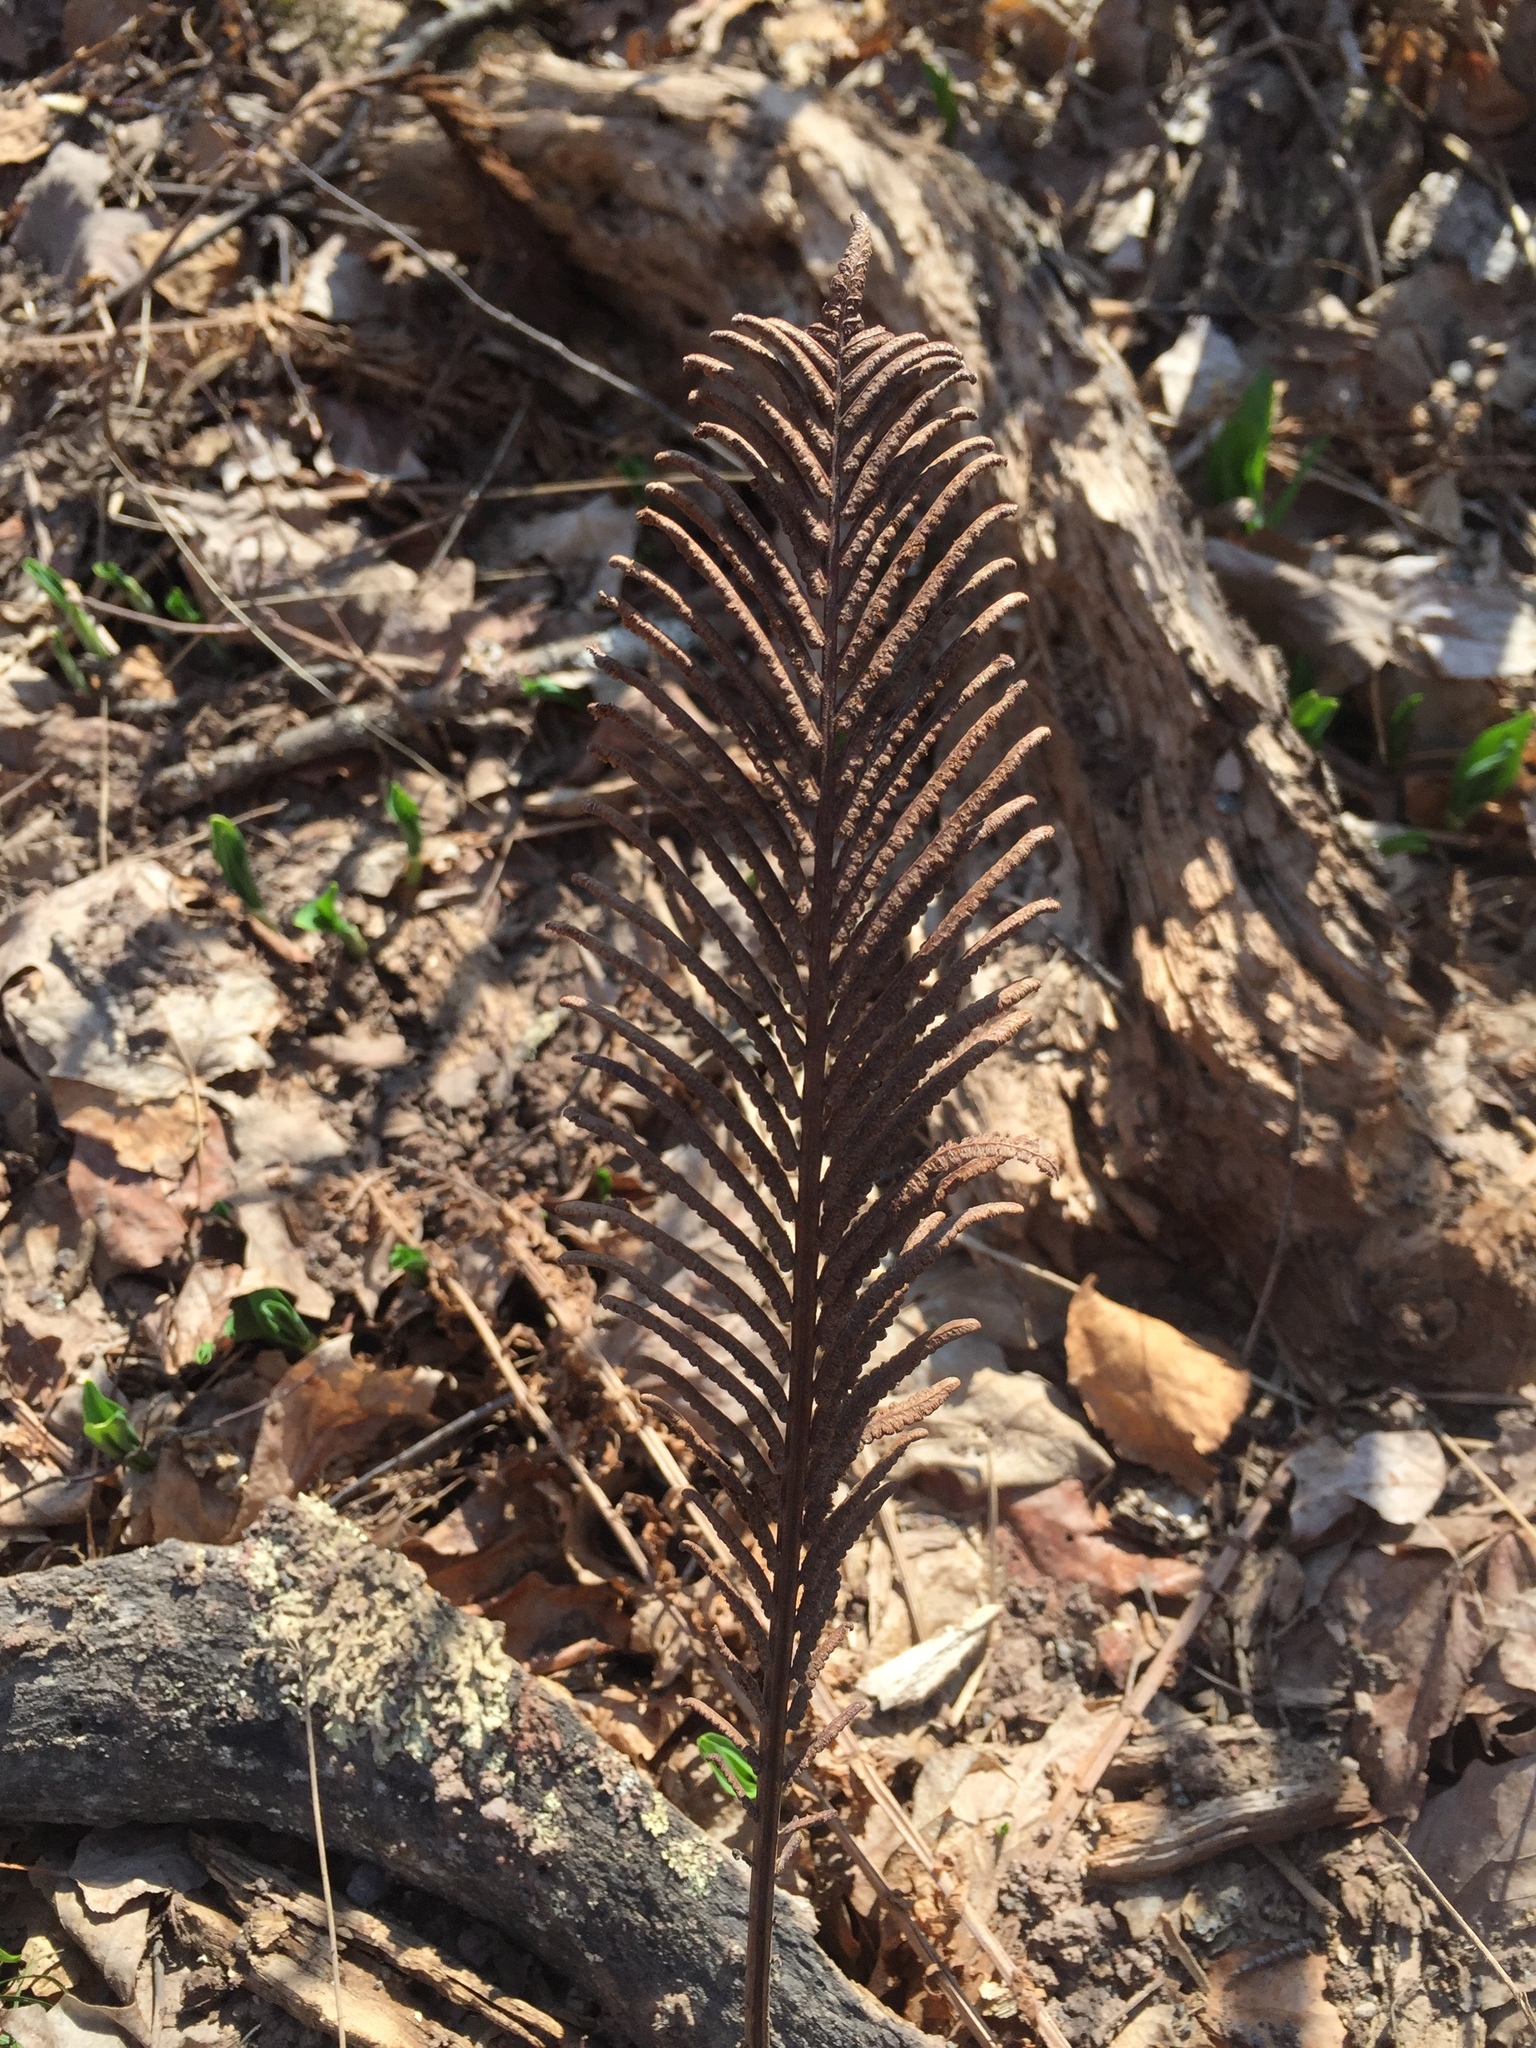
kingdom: Plantae
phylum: Tracheophyta
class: Polypodiopsida
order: Polypodiales
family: Onocleaceae
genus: Matteuccia
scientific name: Matteuccia struthiopteris
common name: Ostrich fern
